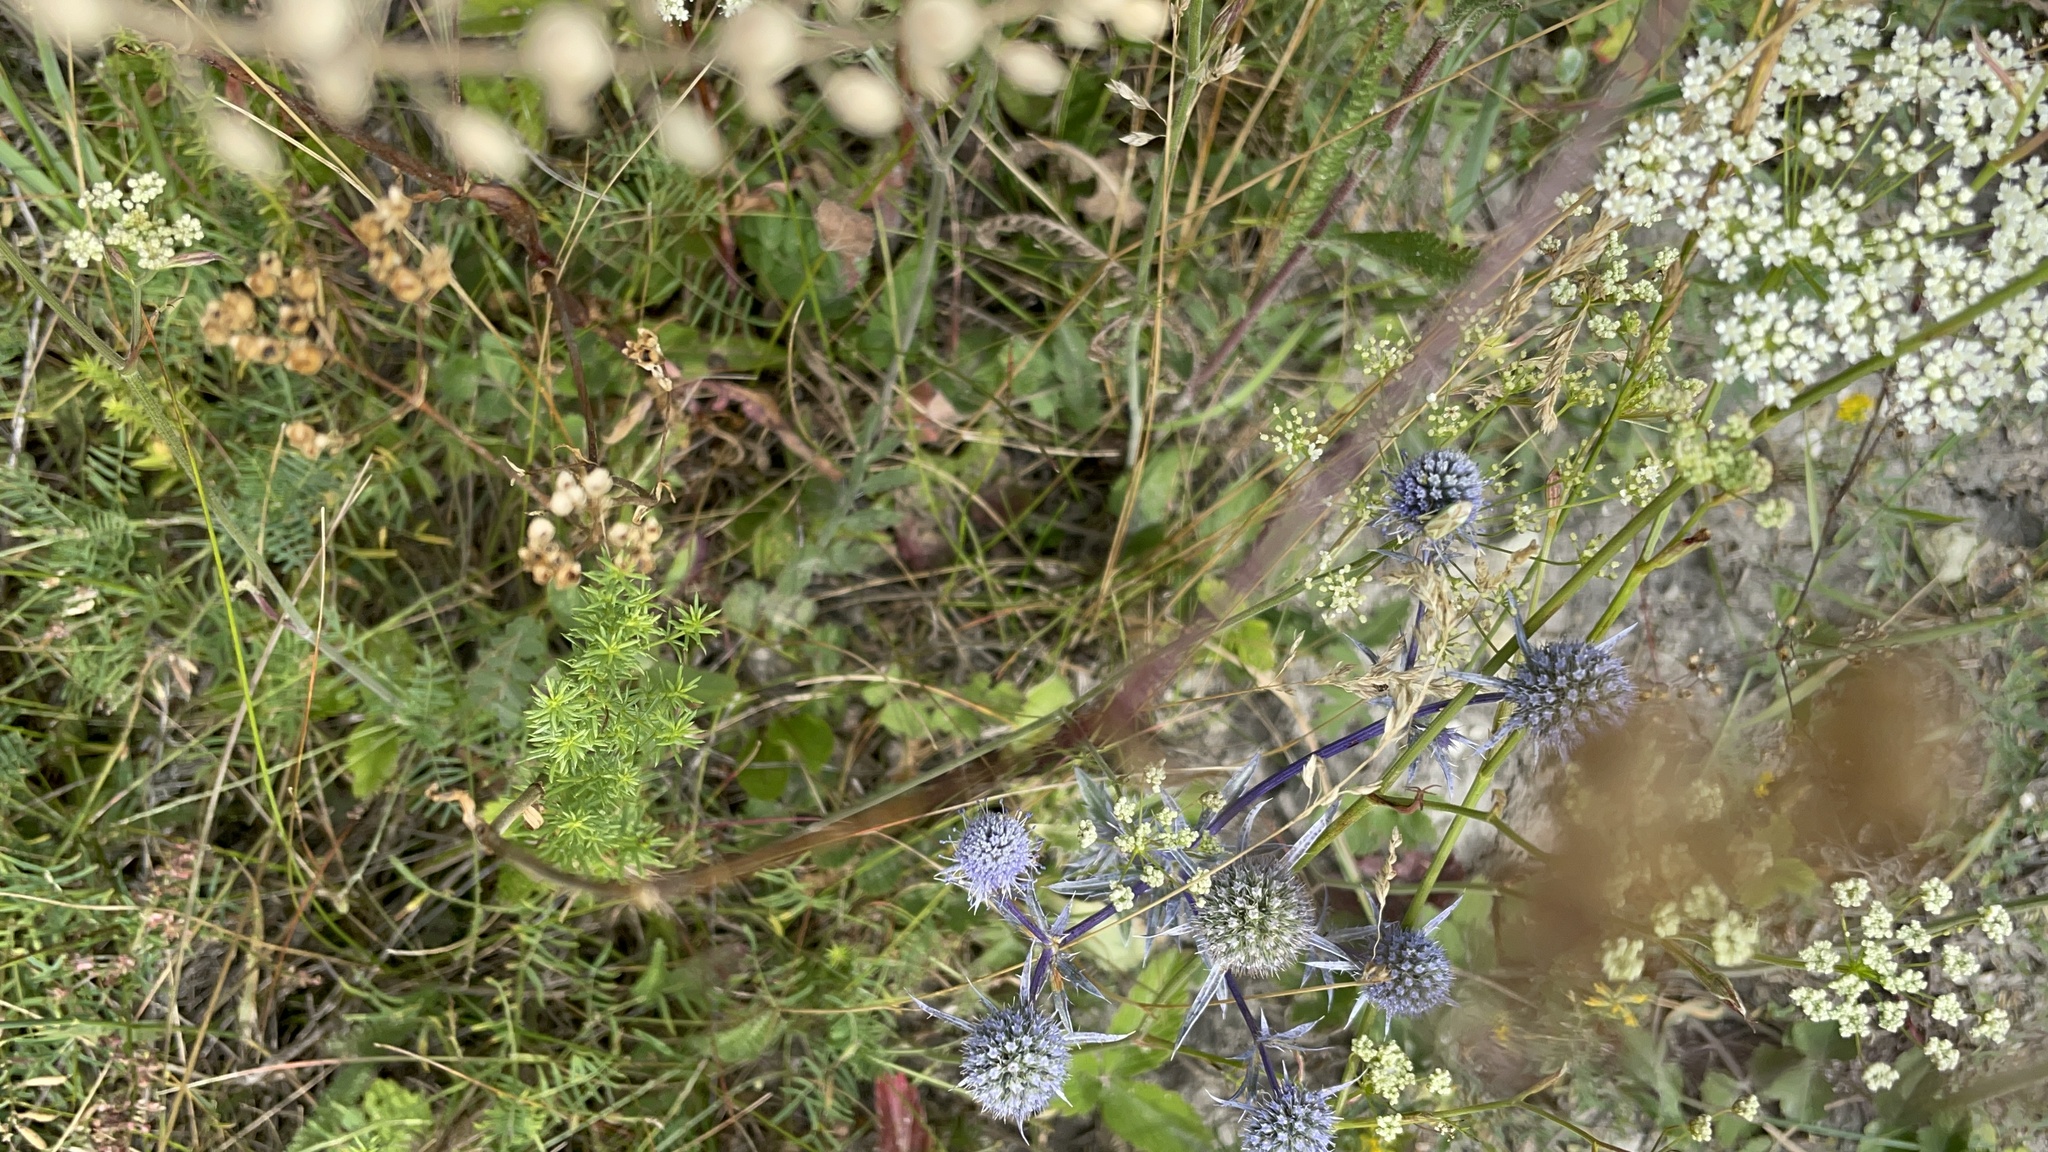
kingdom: Plantae
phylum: Tracheophyta
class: Magnoliopsida
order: Apiales
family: Apiaceae
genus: Eryngium
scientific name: Eryngium planum
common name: Blue eryngo
